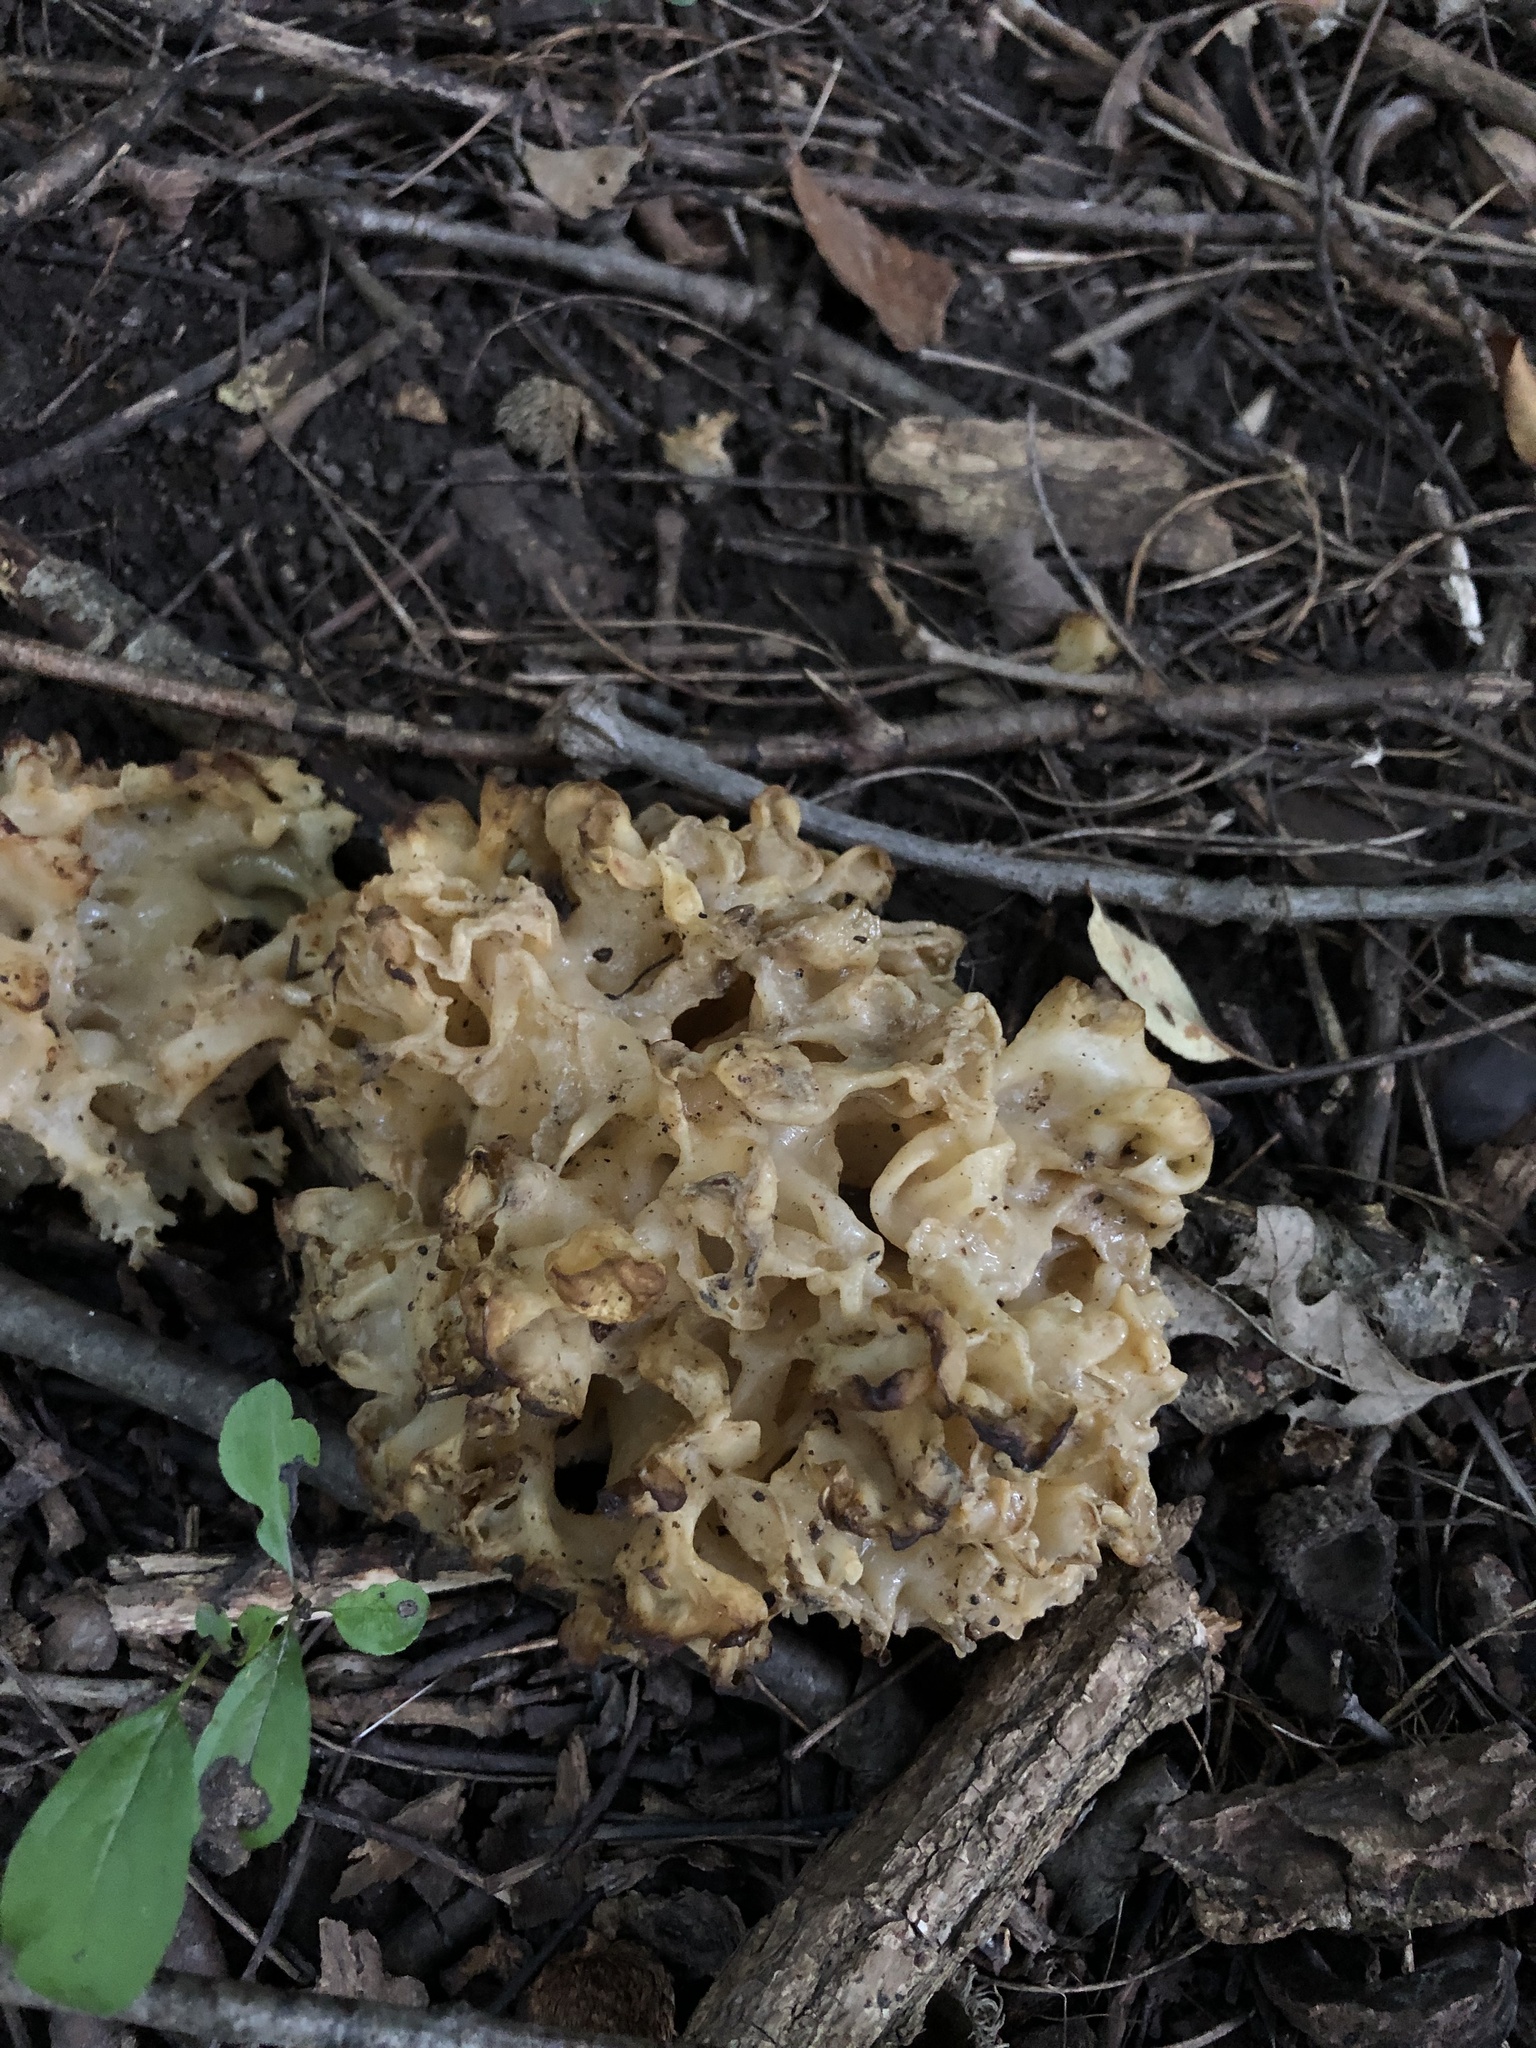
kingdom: Fungi
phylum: Basidiomycota
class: Agaricomycetes
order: Sebacinales
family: Sebacinaceae
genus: Sebacina
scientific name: Sebacina sparassoidea
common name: White coral jelly fungus
